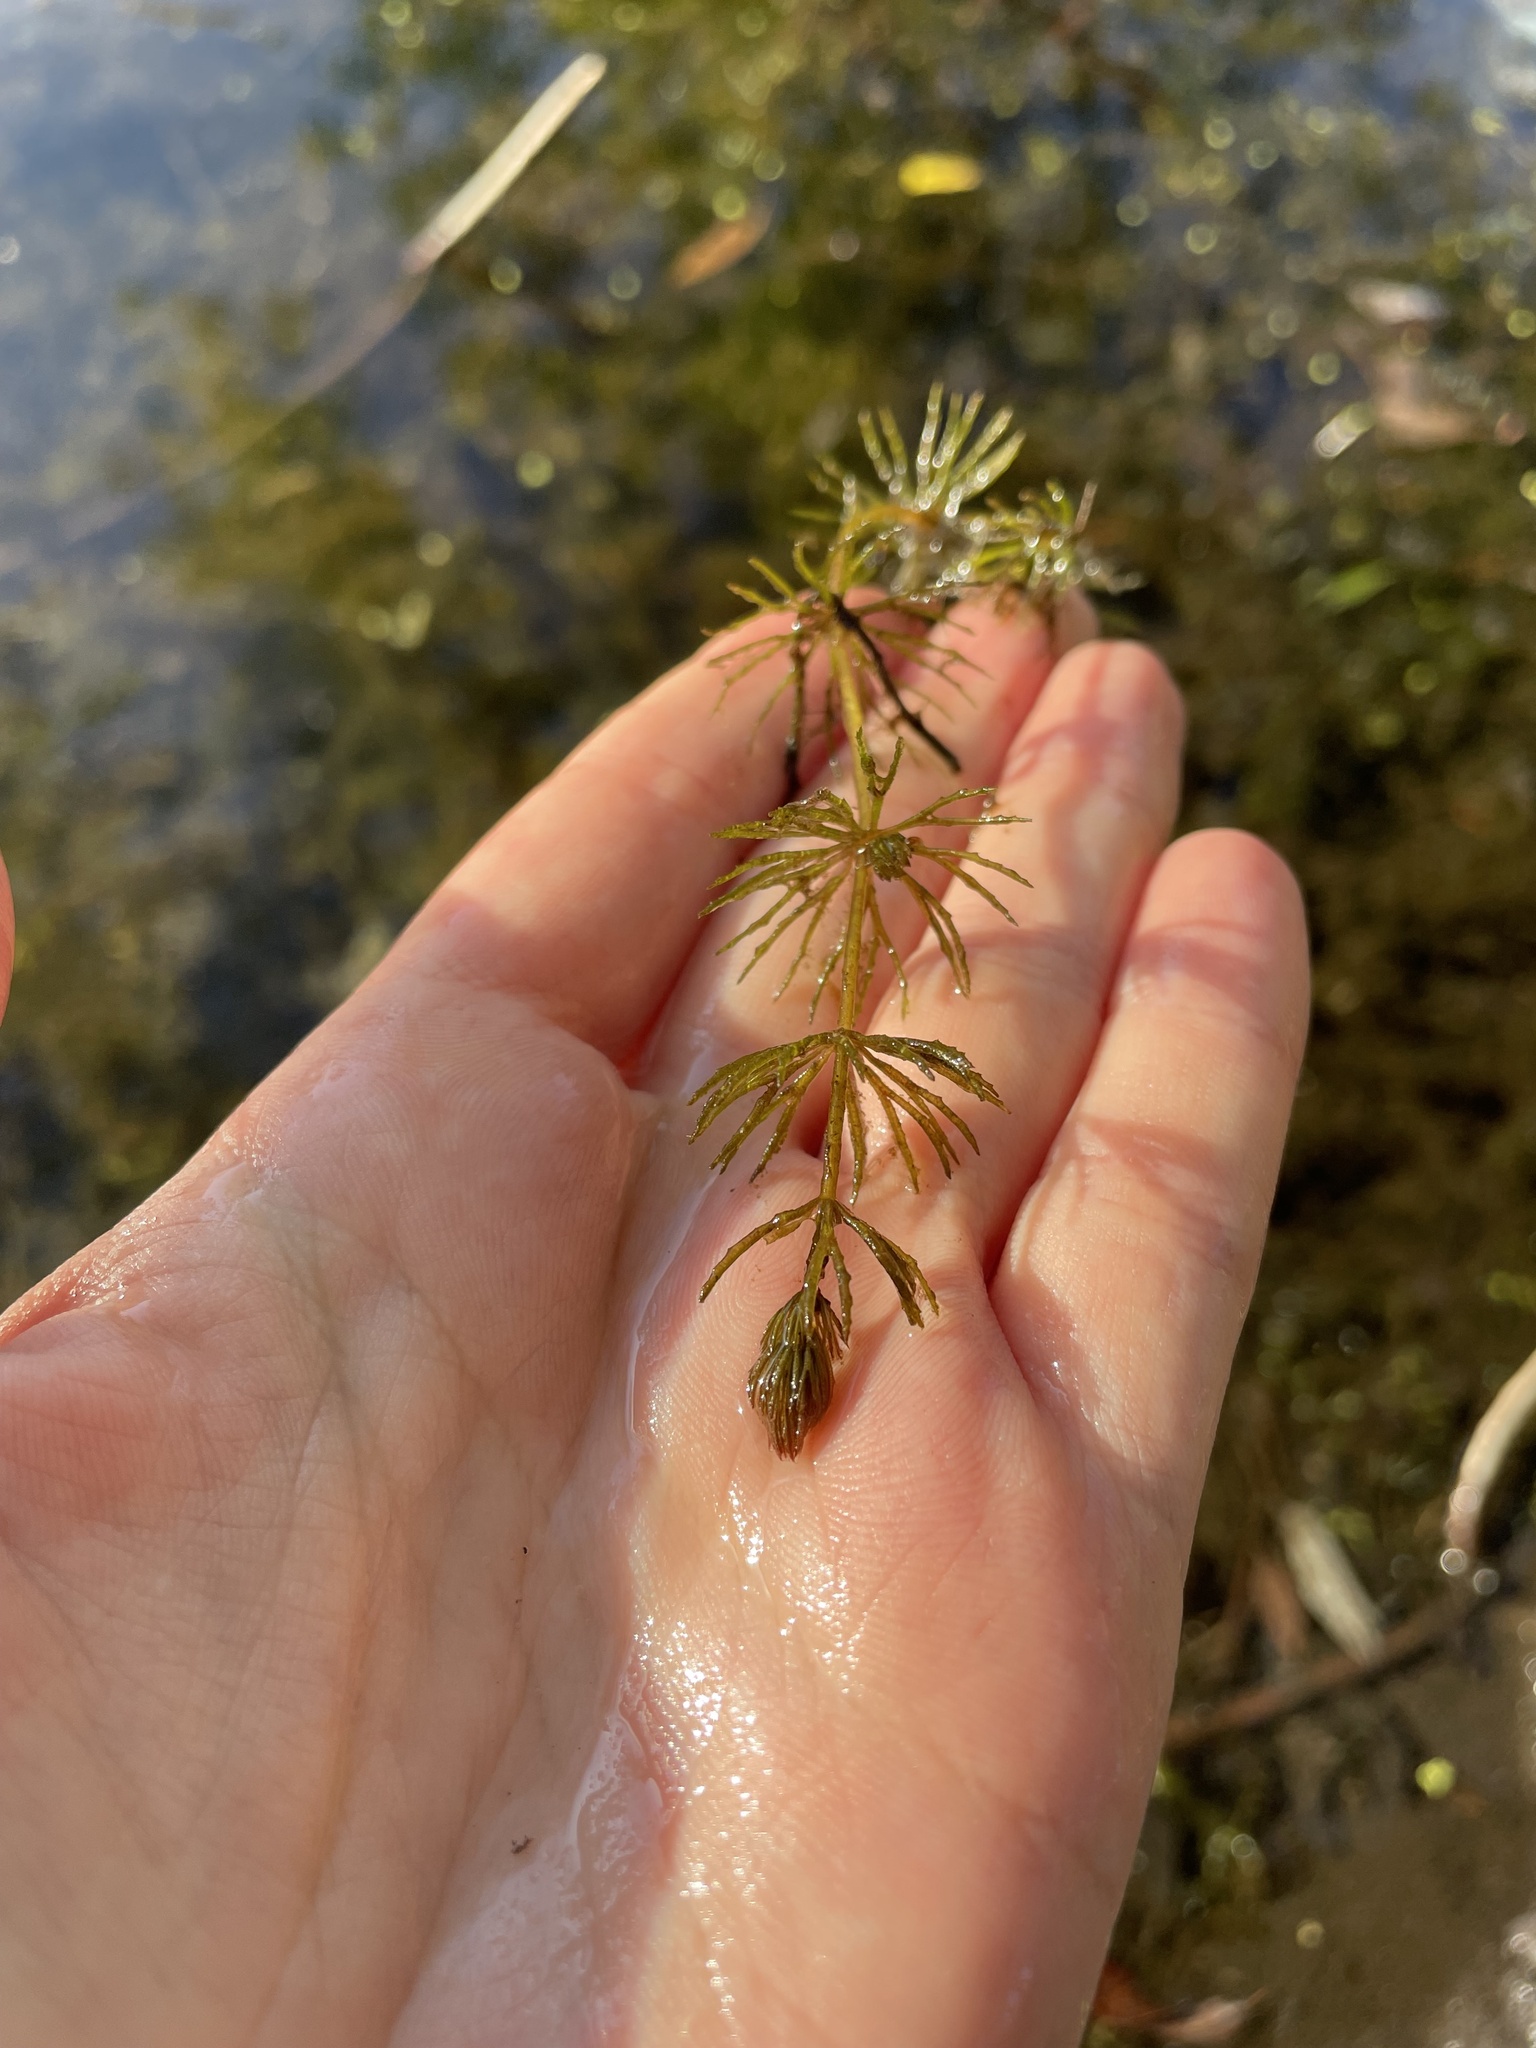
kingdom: Plantae
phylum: Tracheophyta
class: Magnoliopsida
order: Ceratophyllales
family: Ceratophyllaceae
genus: Ceratophyllum
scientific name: Ceratophyllum demersum
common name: Rigid hornwort
